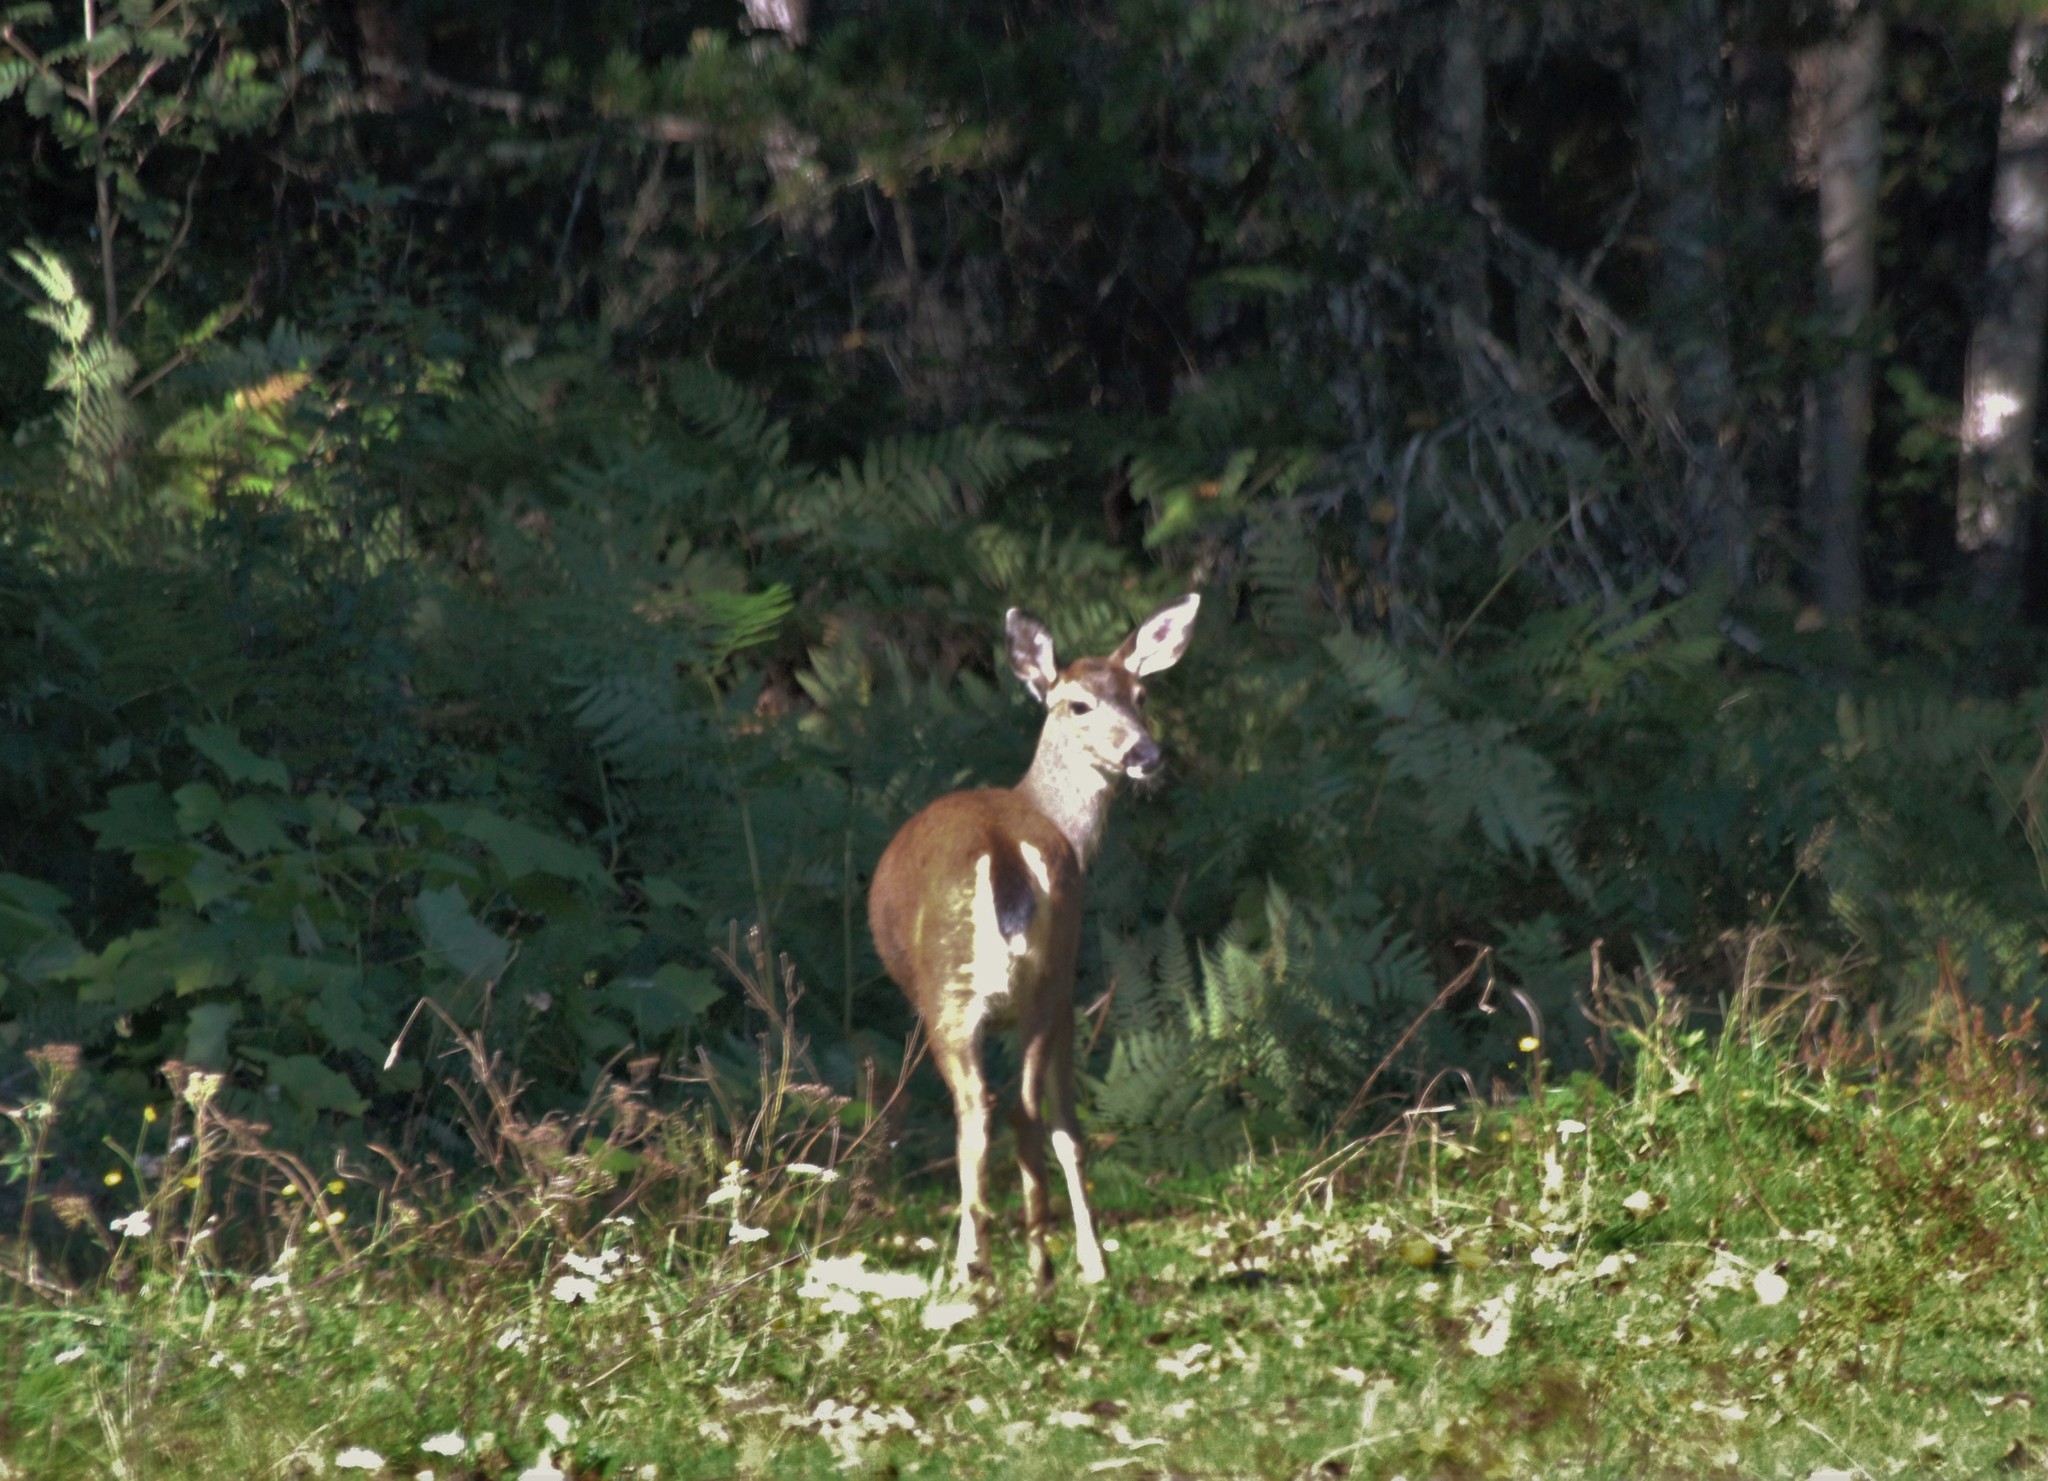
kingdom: Animalia
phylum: Chordata
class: Mammalia
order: Artiodactyla
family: Cervidae
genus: Odocoileus
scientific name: Odocoileus hemionus
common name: Mule deer
